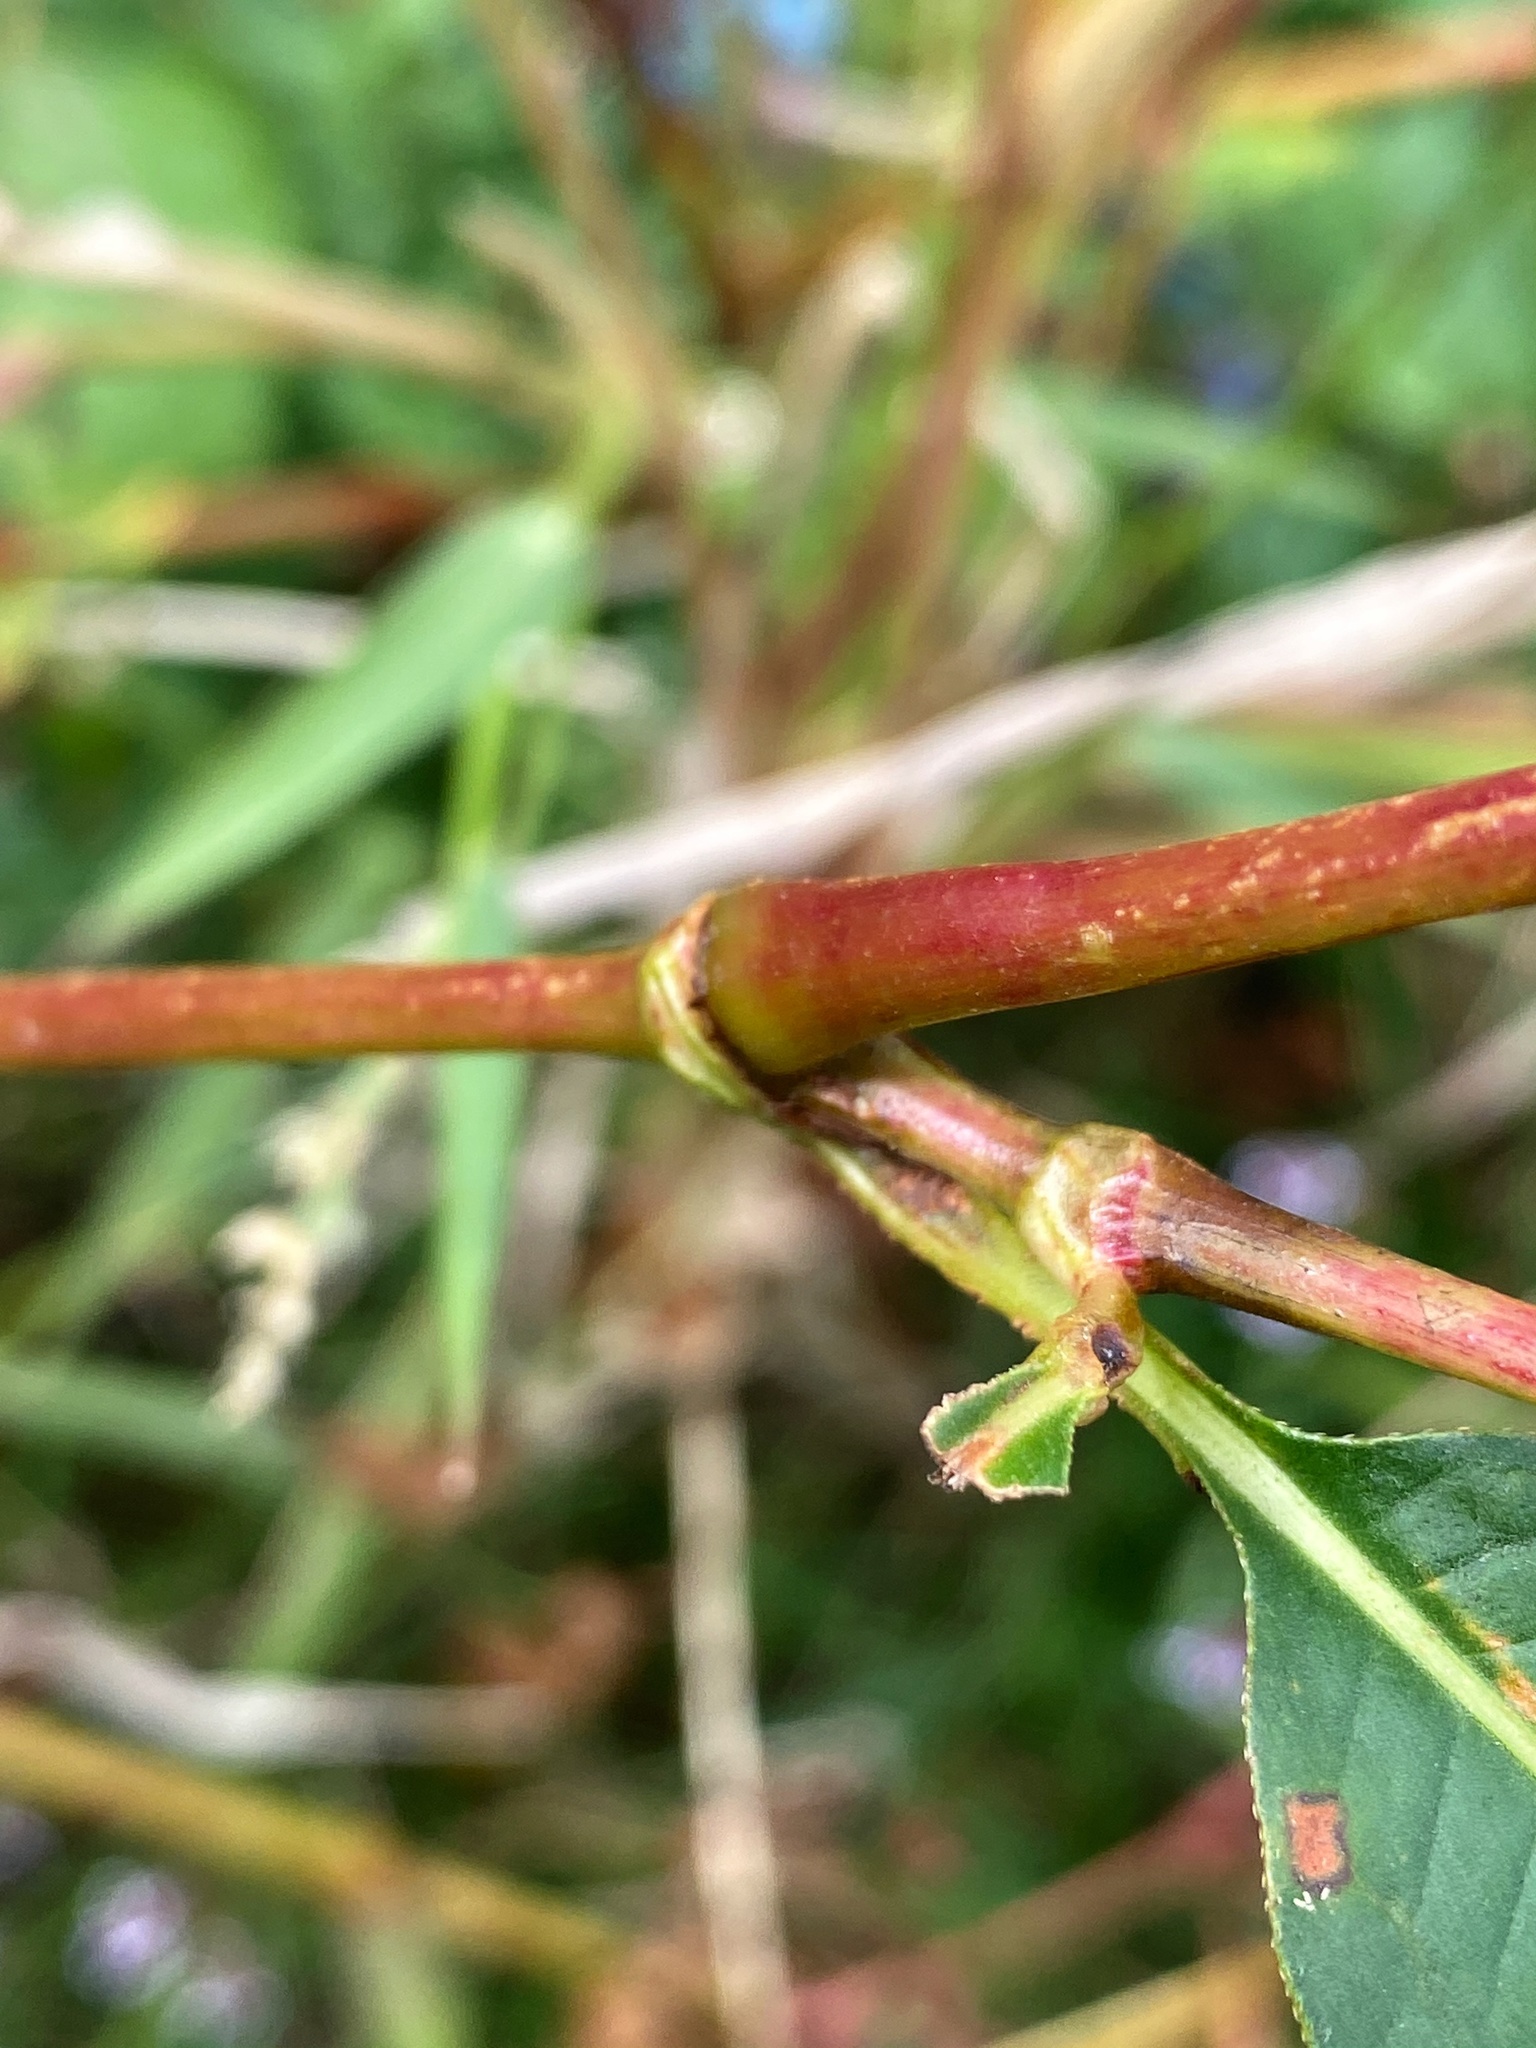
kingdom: Plantae
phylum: Tracheophyta
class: Magnoliopsida
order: Caryophyllales
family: Polygonaceae
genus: Persicaria
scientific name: Persicaria pensylvanica
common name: Pinkweed
